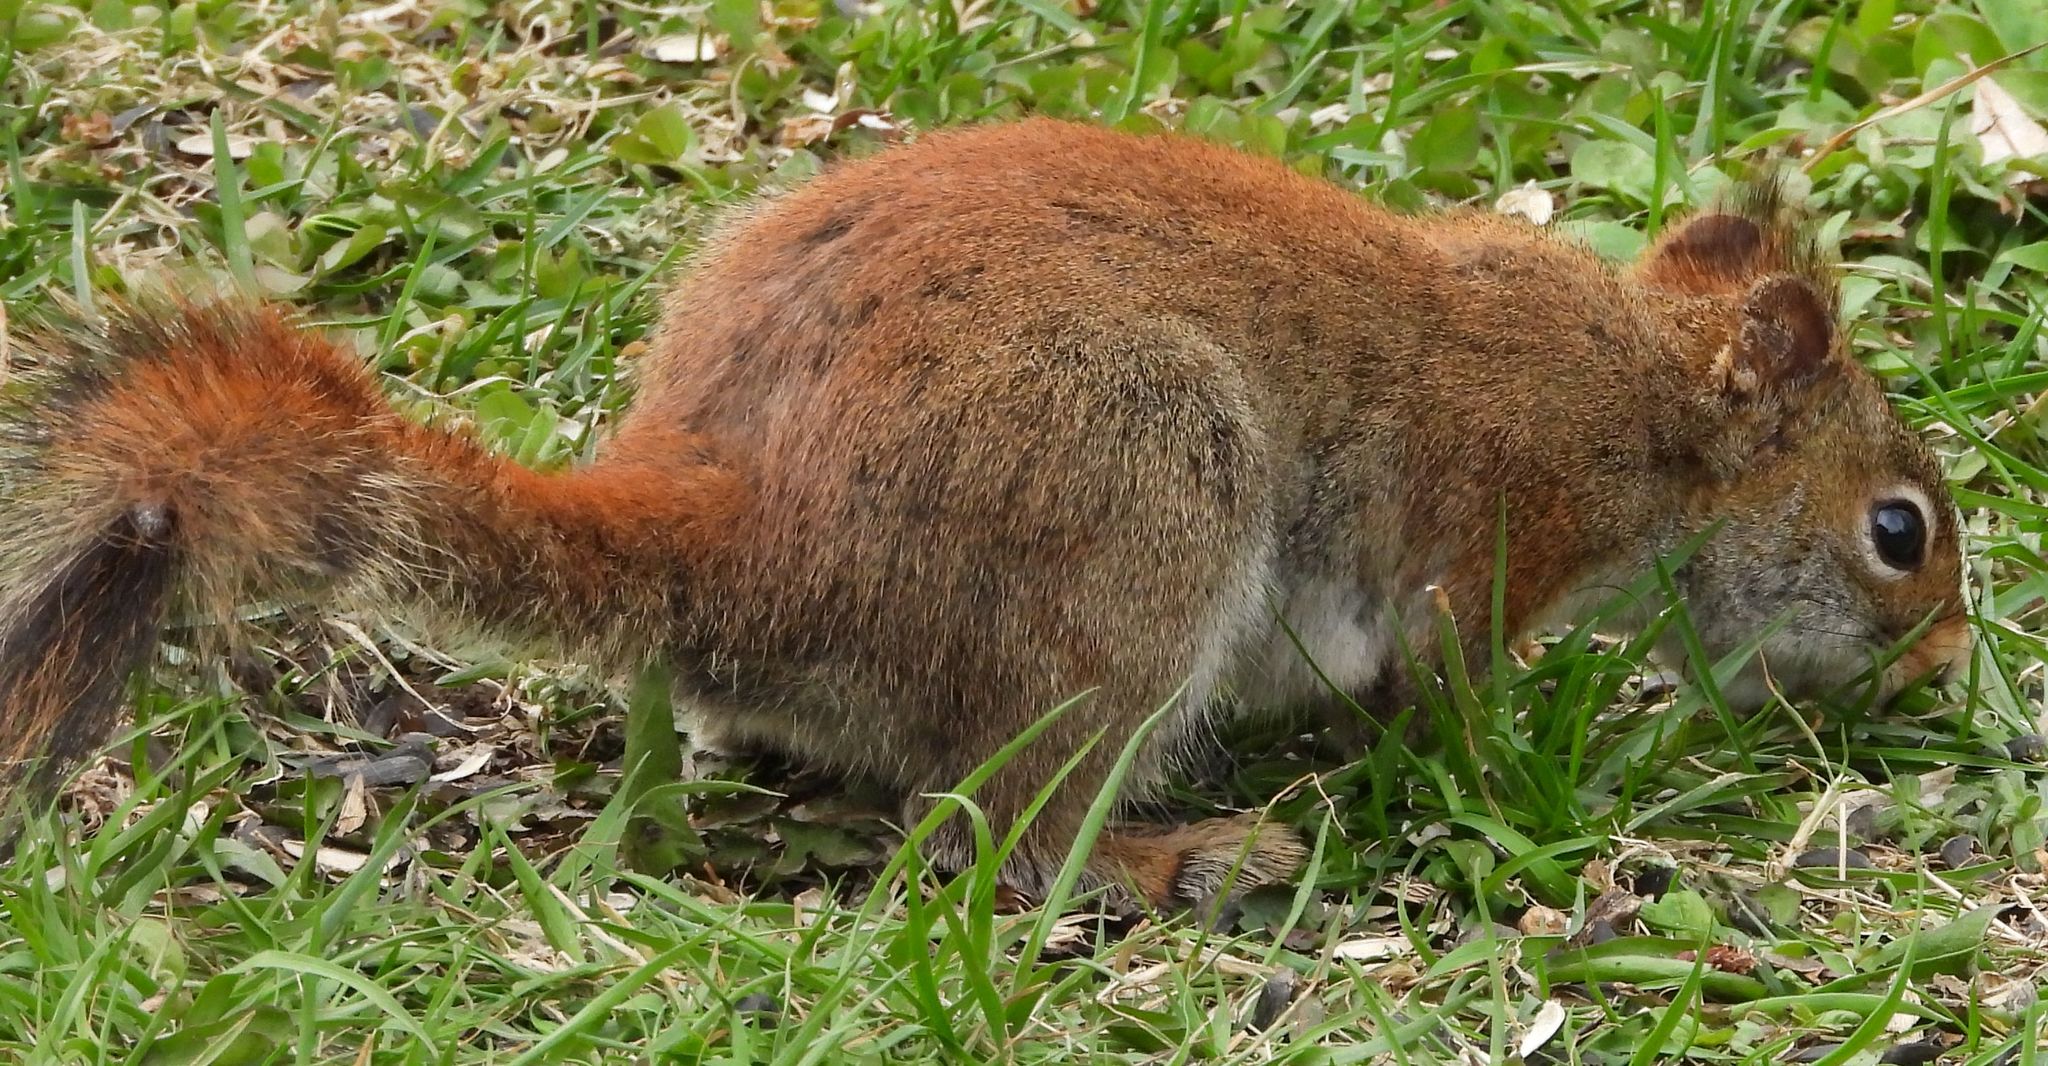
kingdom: Animalia
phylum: Chordata
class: Mammalia
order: Rodentia
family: Sciuridae
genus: Tamiasciurus
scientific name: Tamiasciurus hudsonicus
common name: Red squirrel
